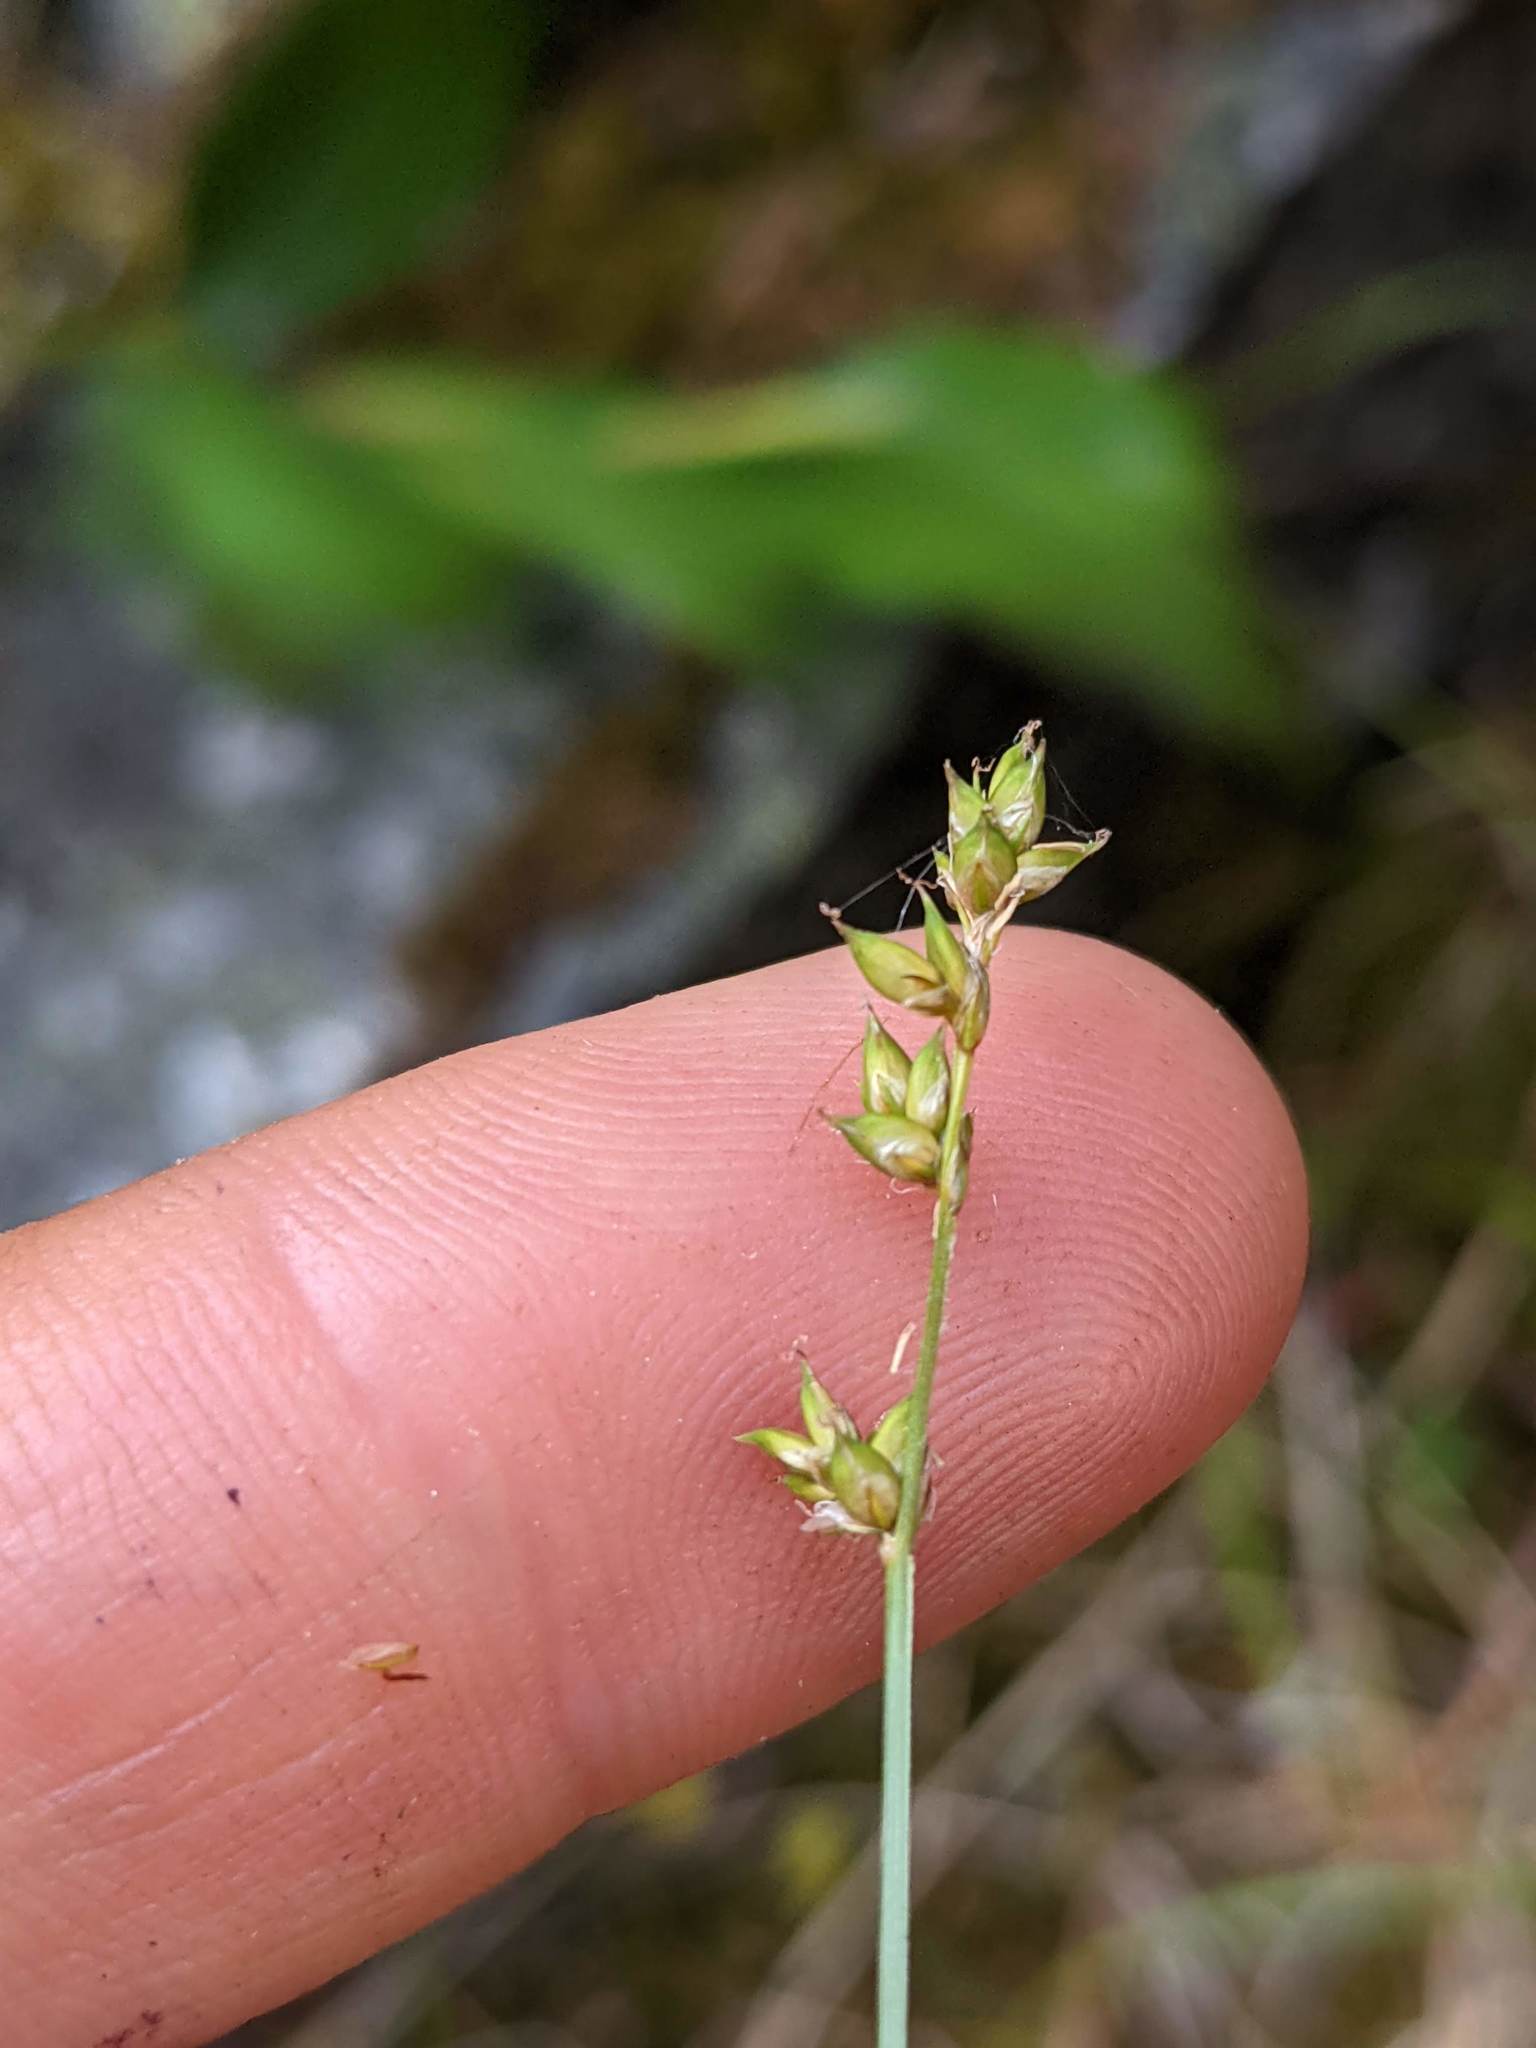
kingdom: Plantae
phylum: Tracheophyta
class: Liliopsida
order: Poales
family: Cyperaceae
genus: Carex
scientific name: Carex brunnescens
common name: Brown sedge
